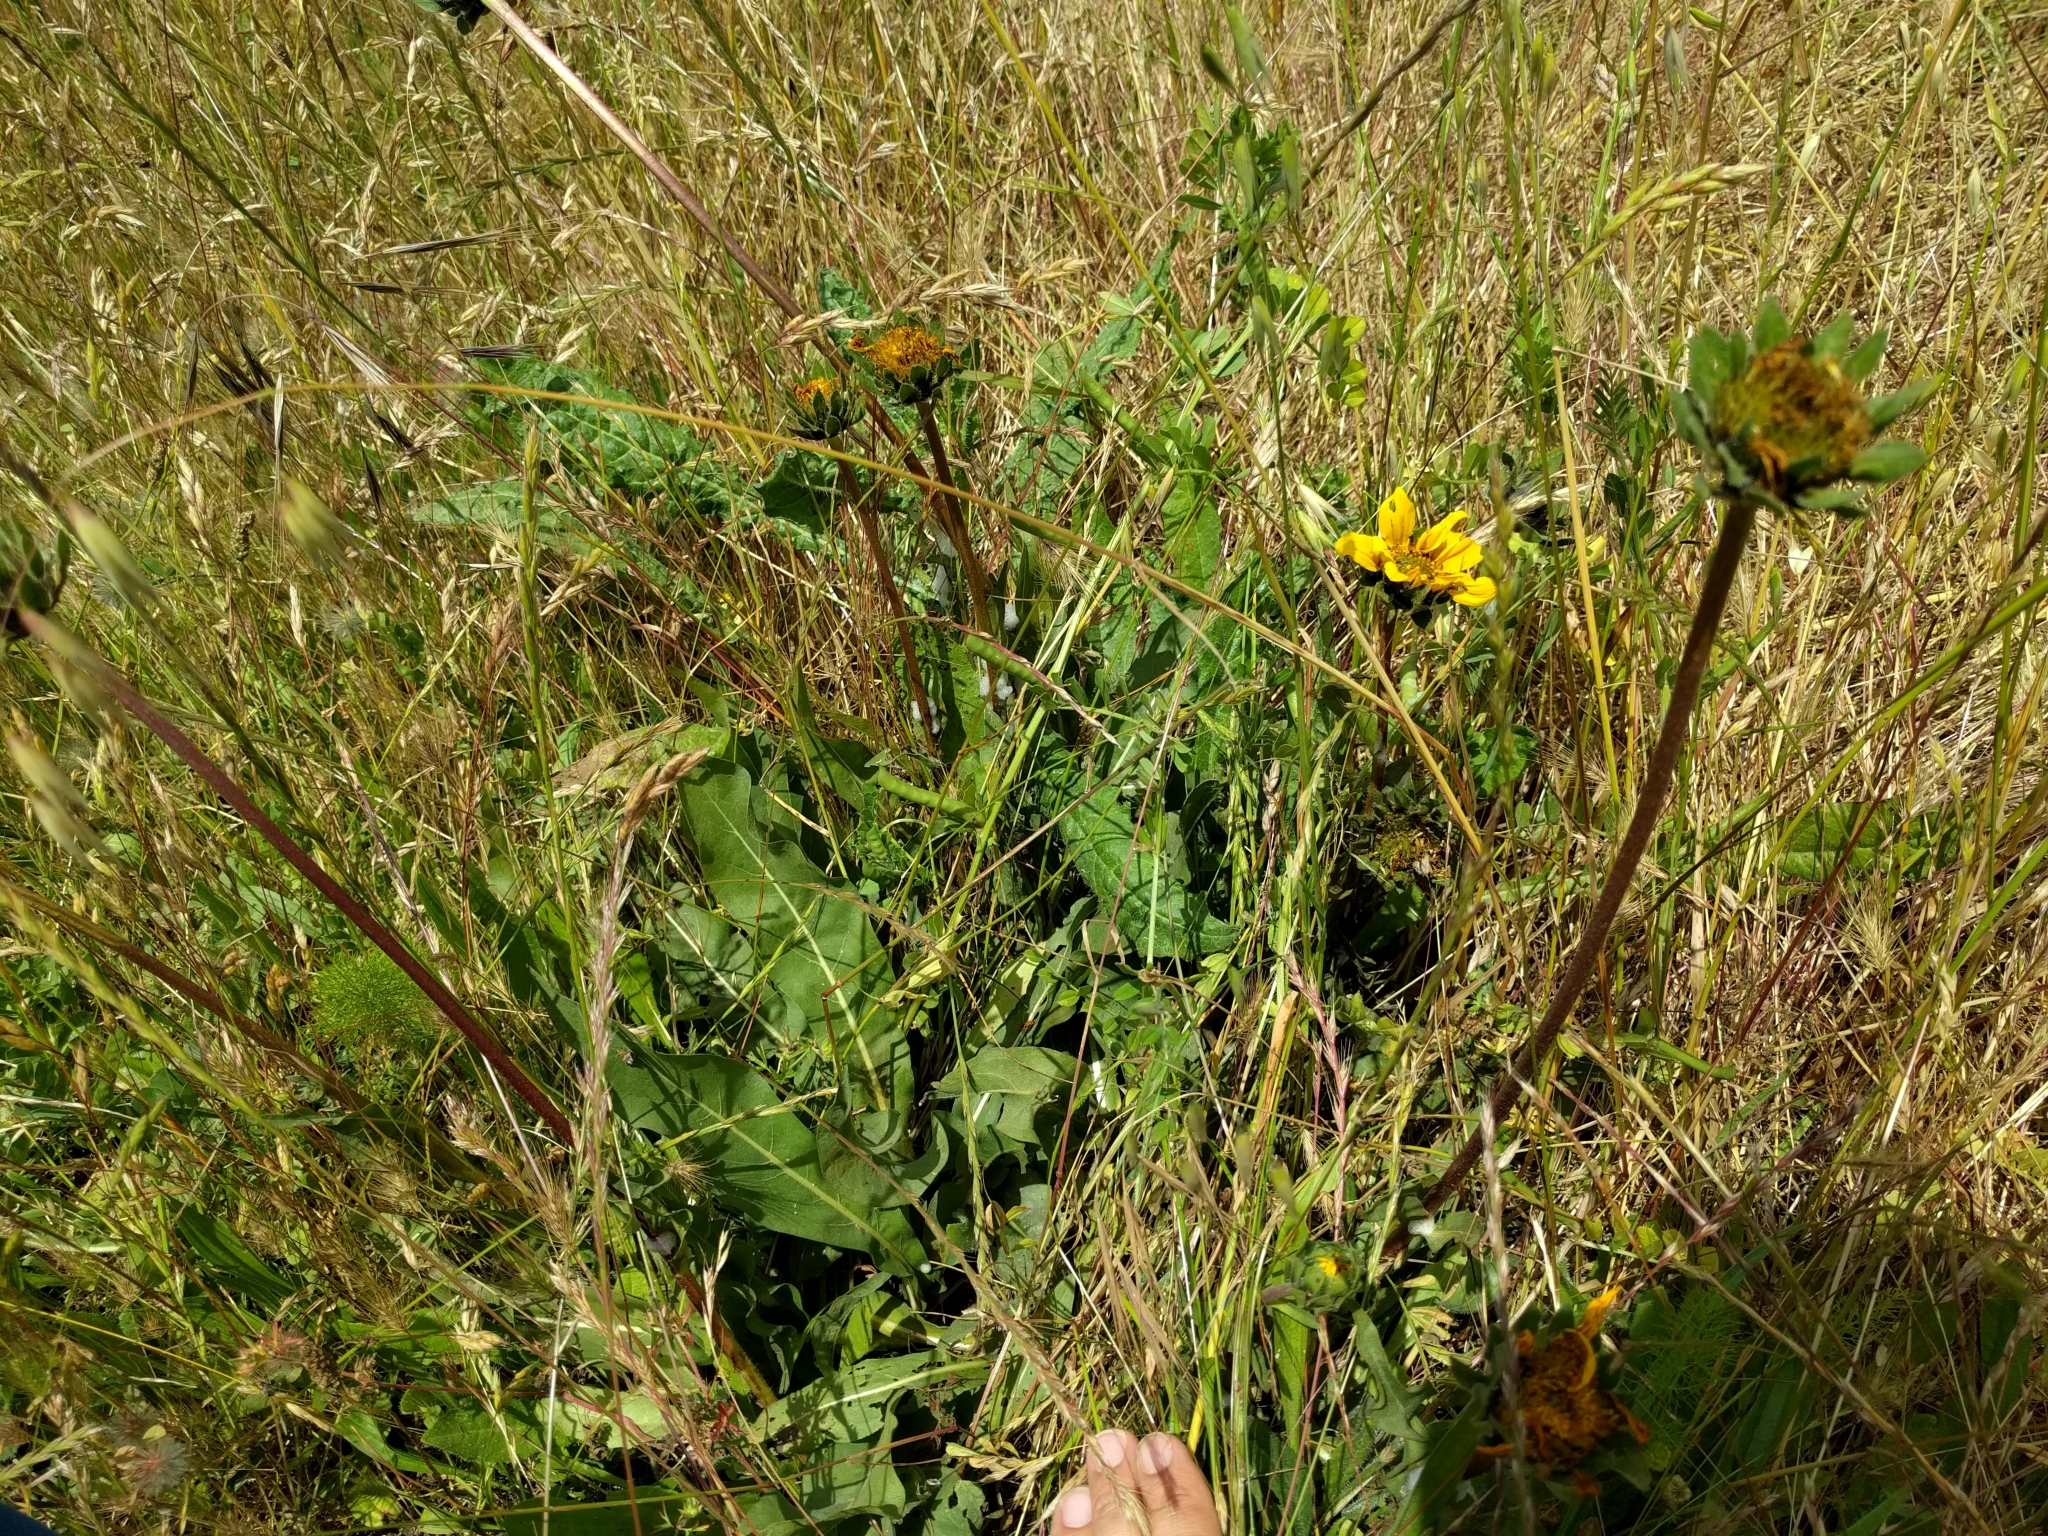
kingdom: Plantae
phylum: Tracheophyta
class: Magnoliopsida
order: Asterales
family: Asteraceae
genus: Wyethia
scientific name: Wyethia angustifolia
